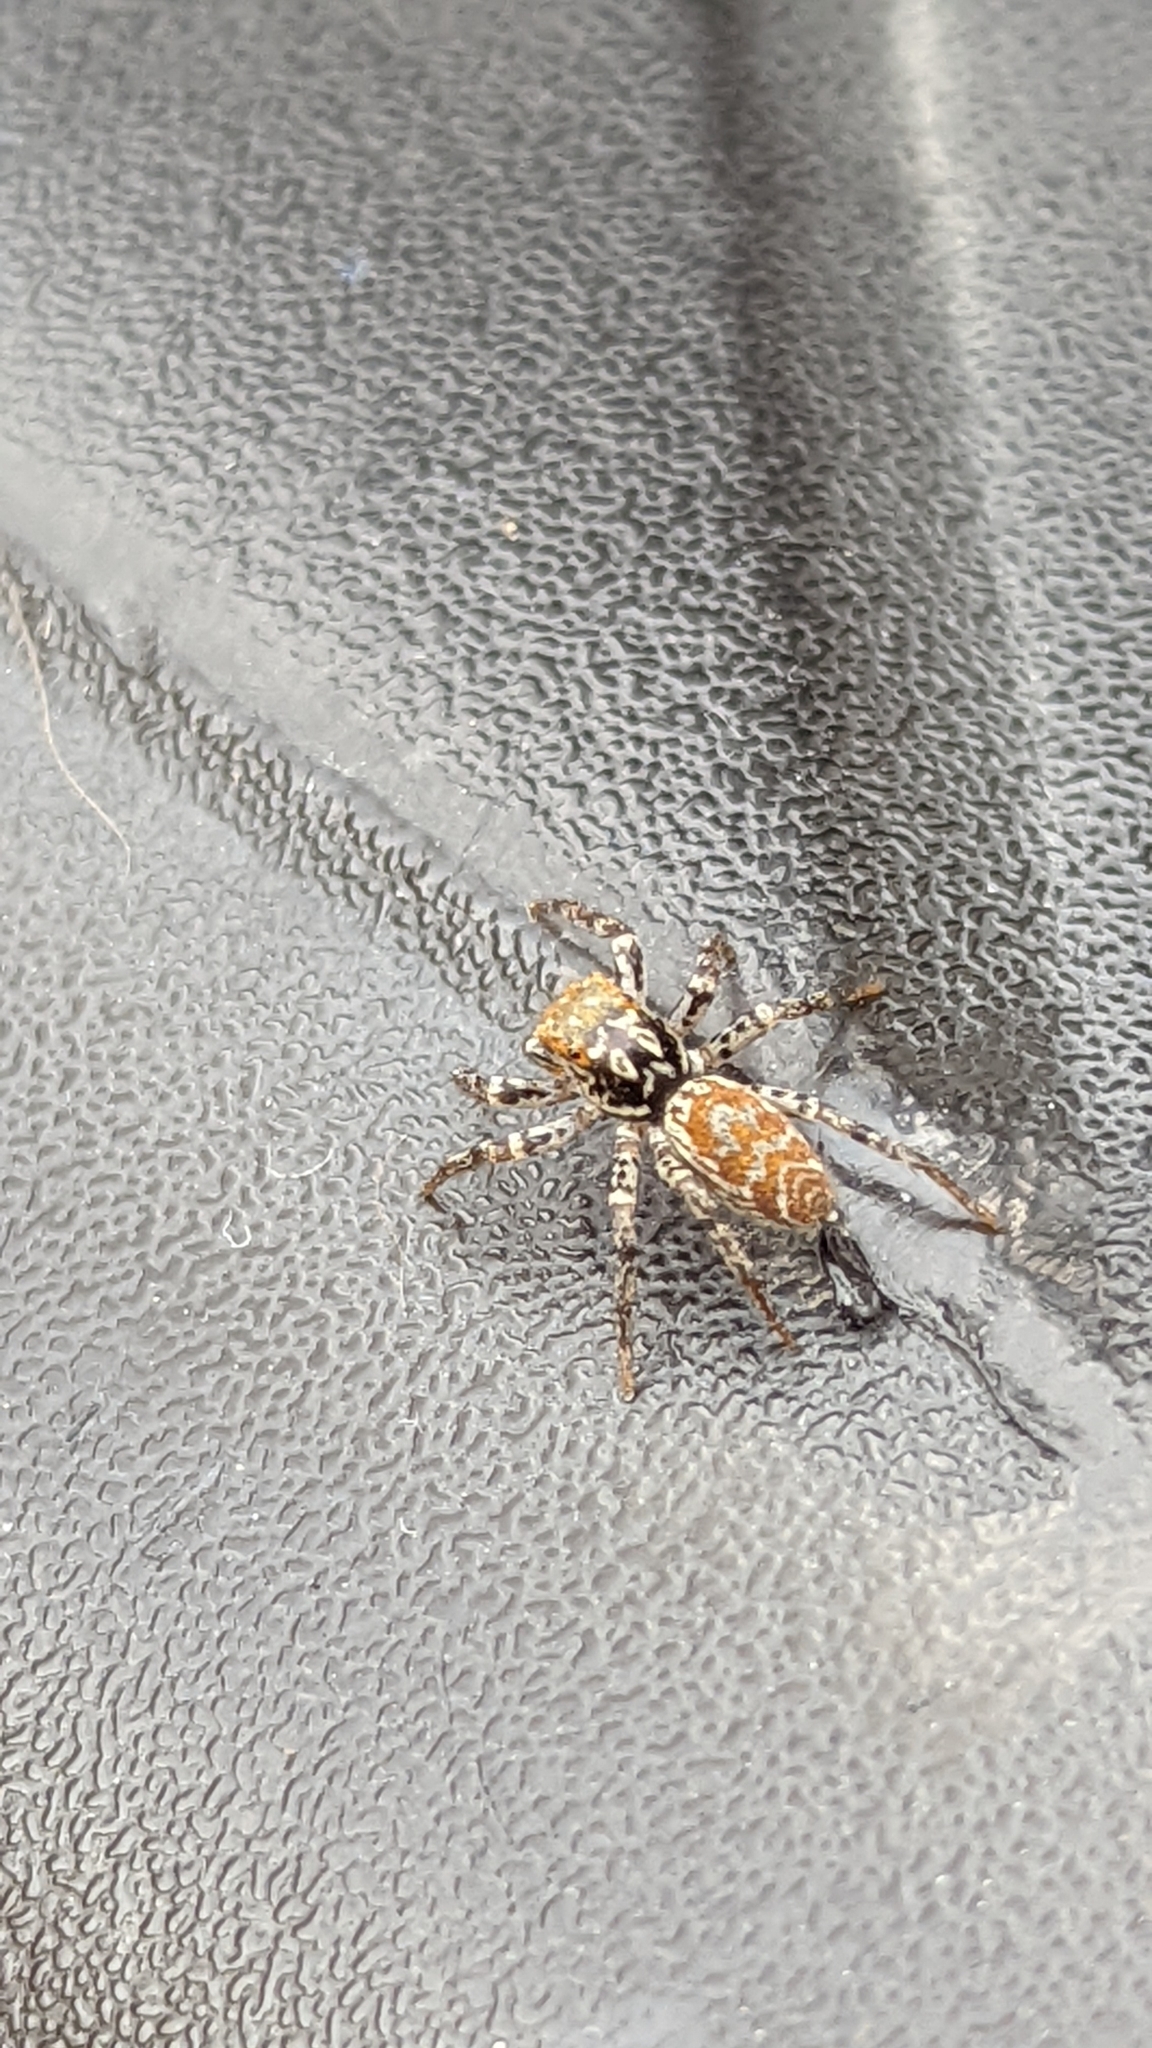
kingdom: Animalia
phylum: Arthropoda
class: Arachnida
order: Araneae
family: Salticidae
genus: Maevia
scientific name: Maevia inclemens
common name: Dimorphic jumper
